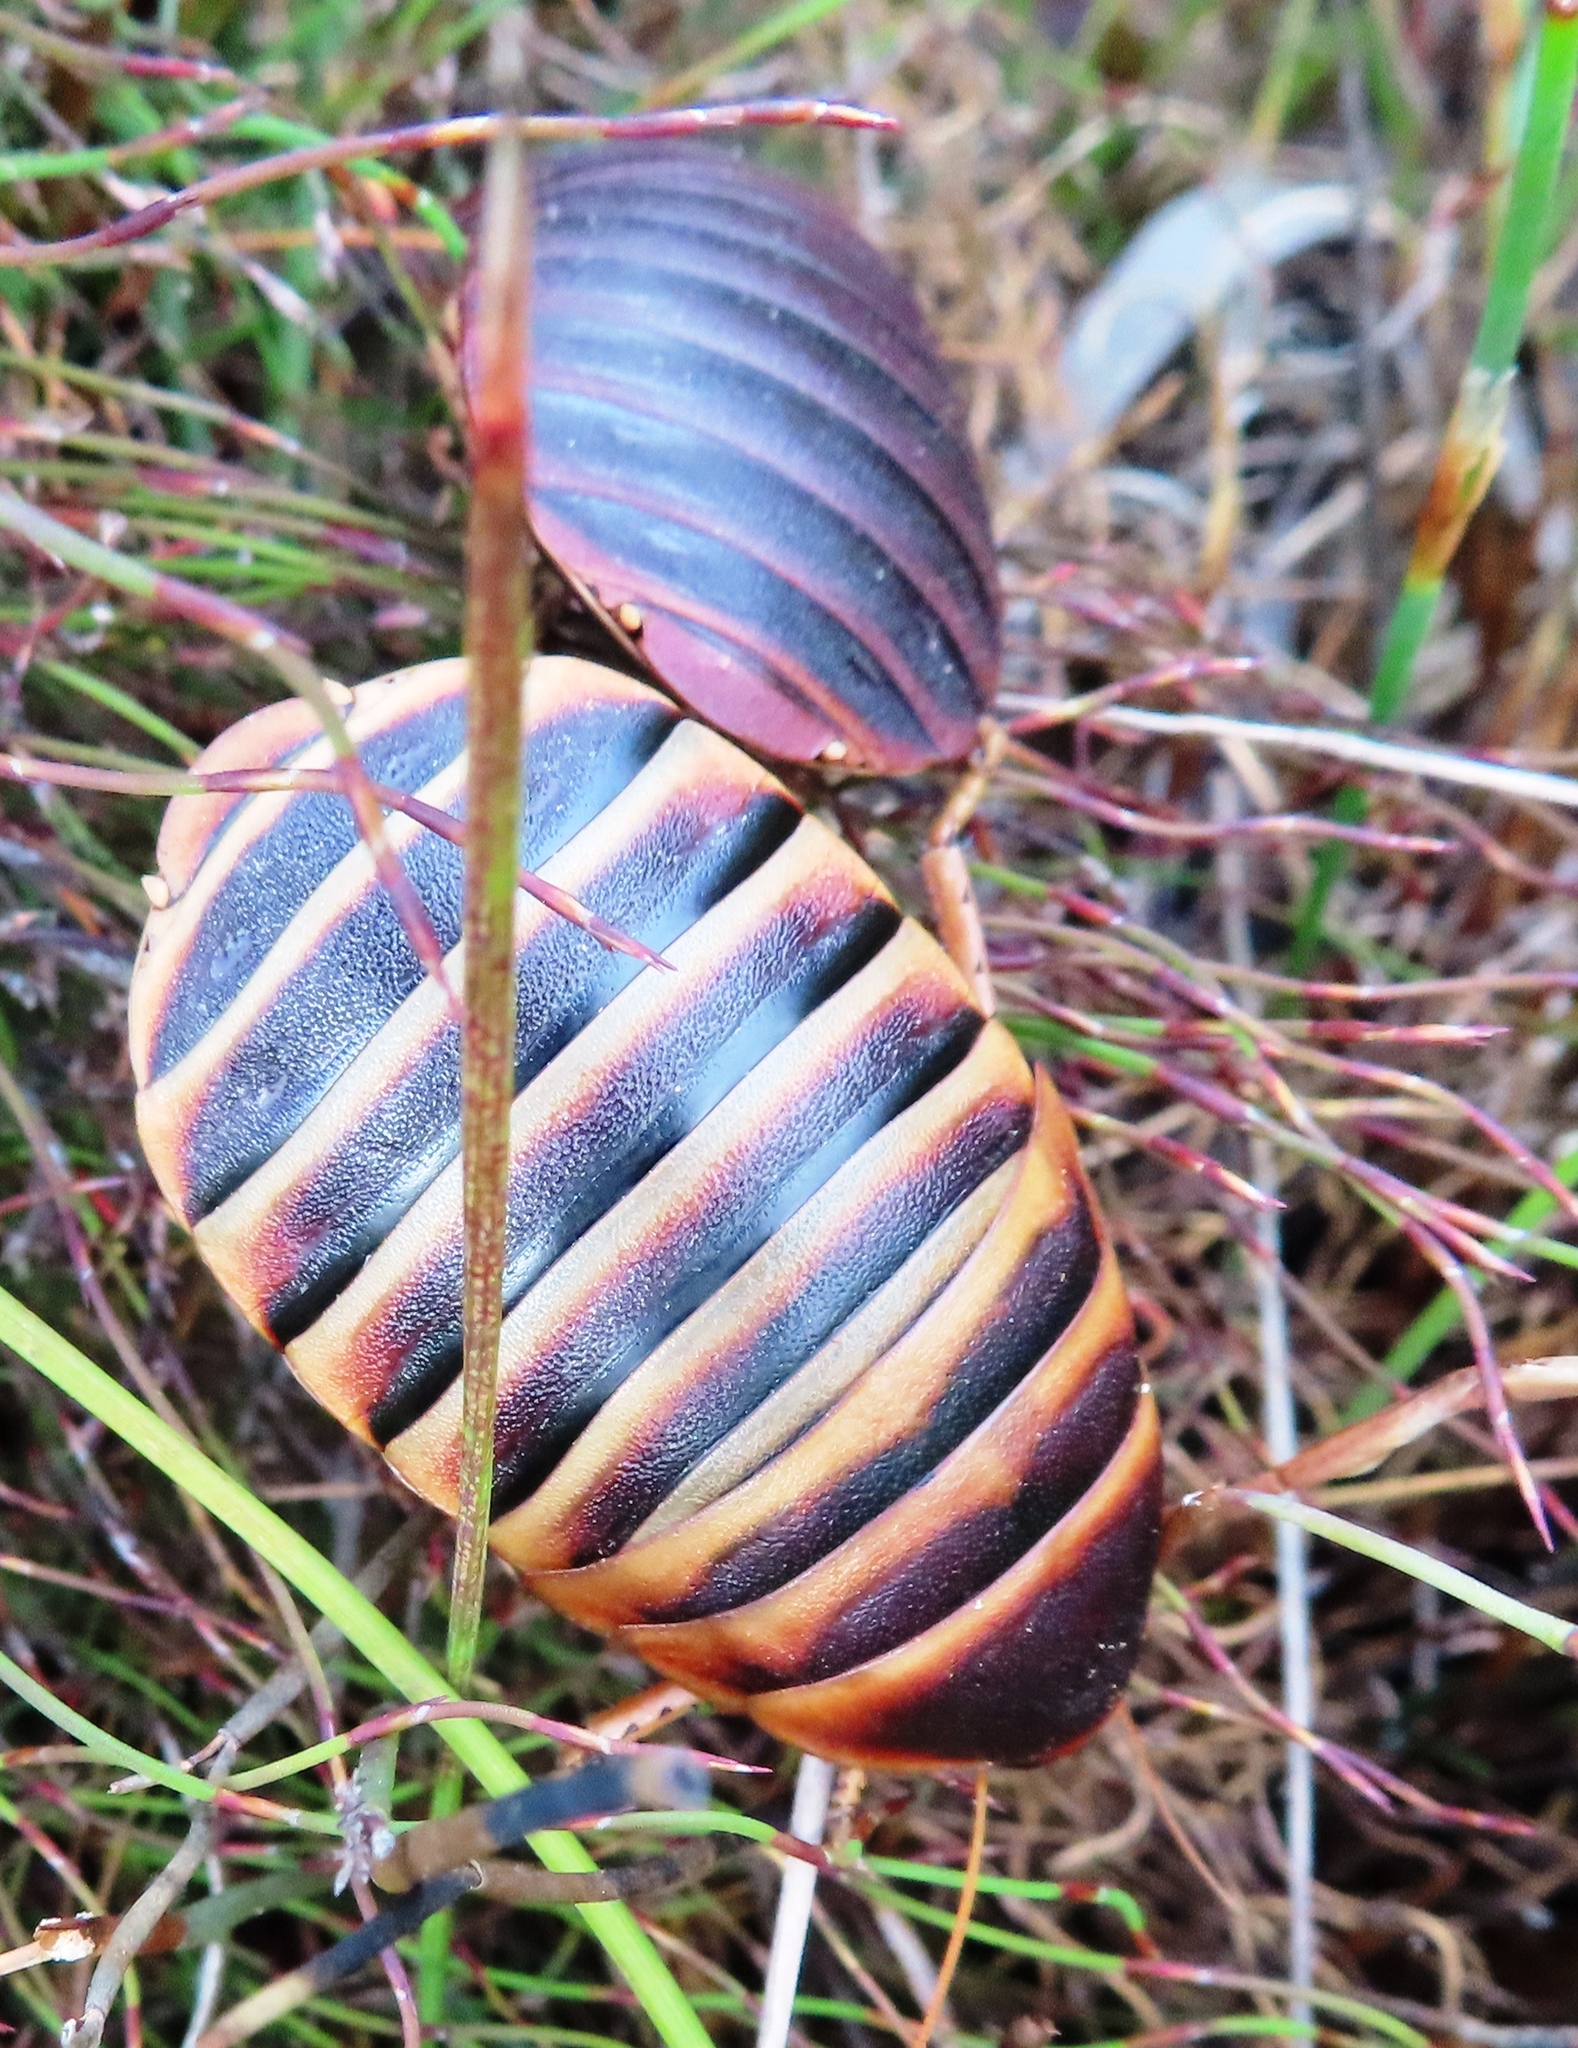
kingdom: Animalia
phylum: Arthropoda
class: Insecta
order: Blattodea
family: Blaberidae
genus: Aptera
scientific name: Aptera fusca
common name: Cape mountain cockroach
